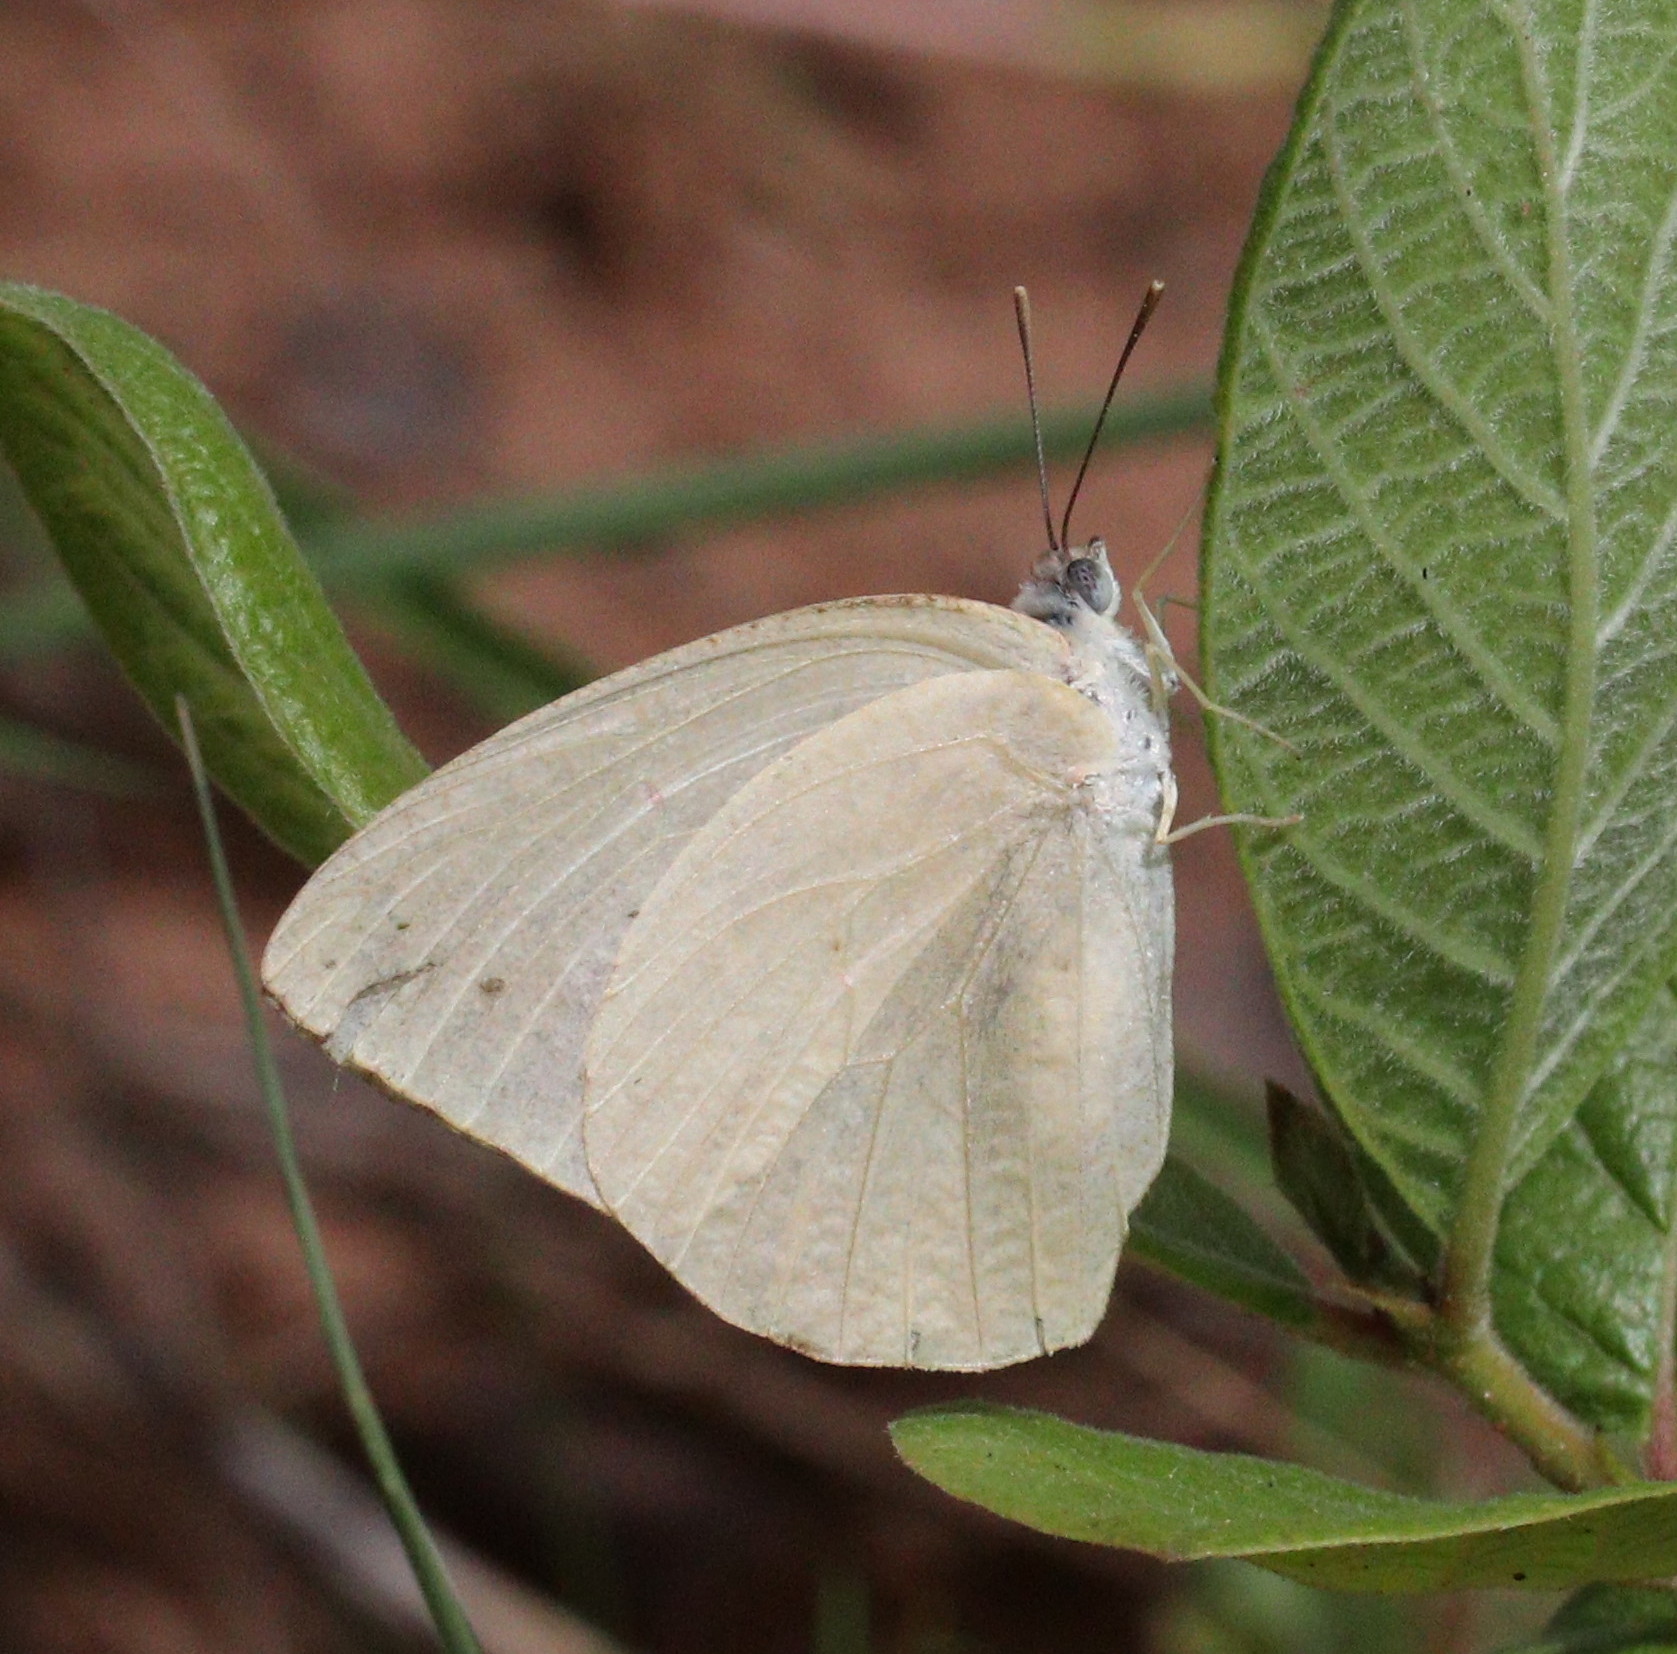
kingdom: Animalia
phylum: Arthropoda
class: Insecta
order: Lepidoptera
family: Pieridae
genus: Catopsilia
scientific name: Catopsilia florella
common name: African migrant
